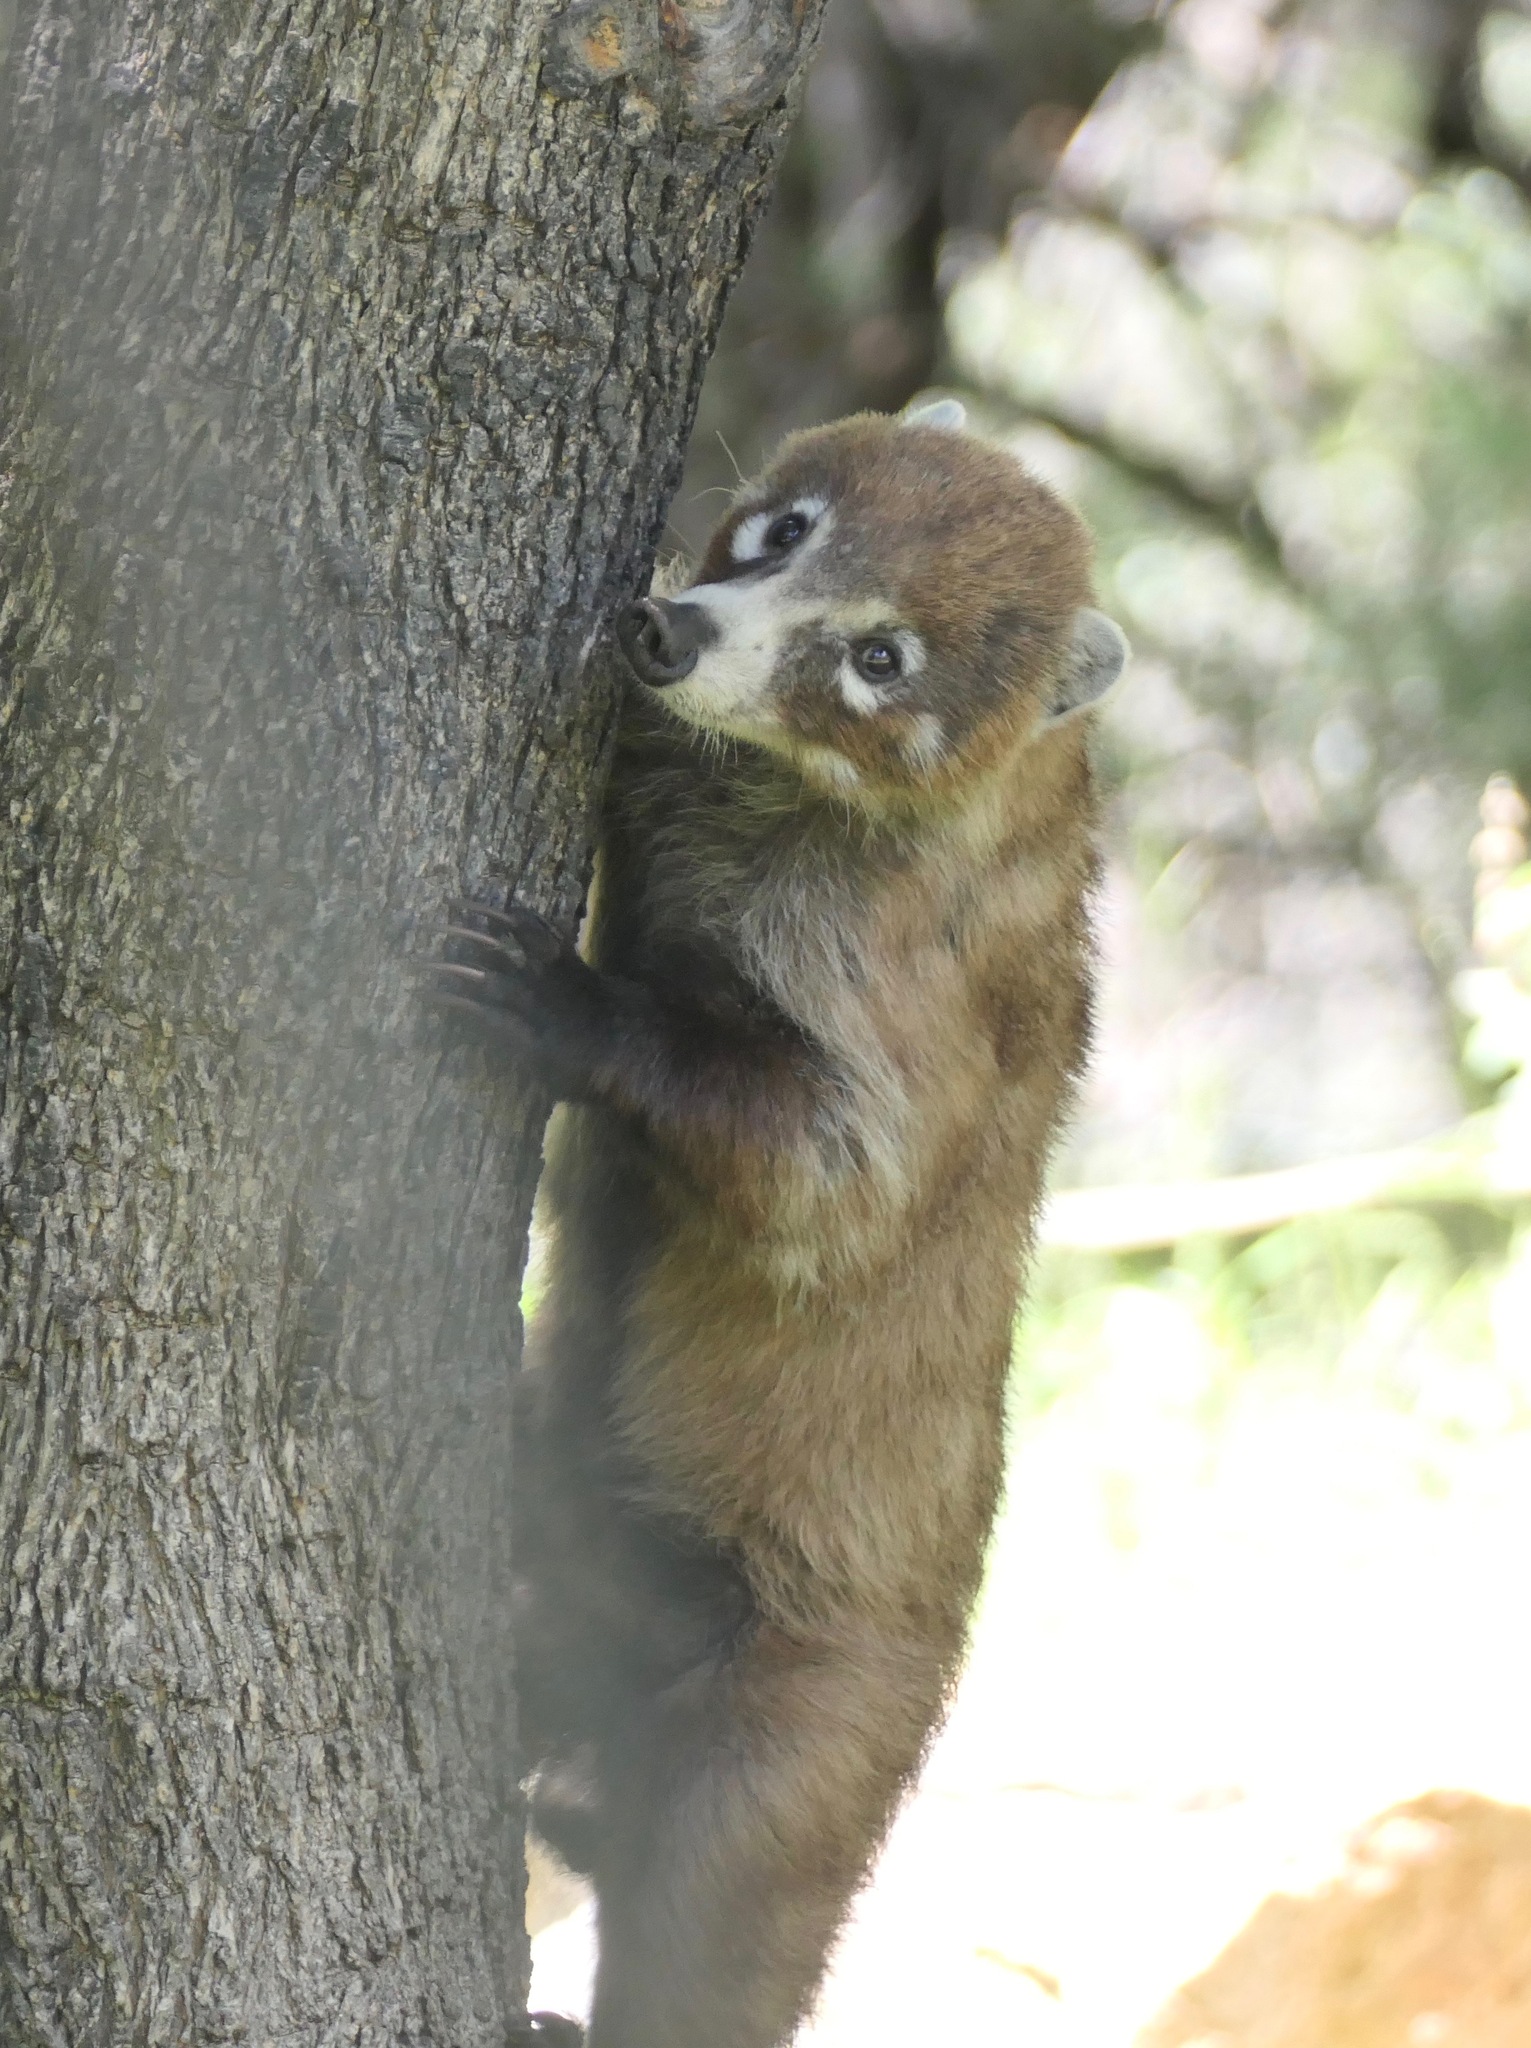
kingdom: Animalia
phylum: Chordata
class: Mammalia
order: Carnivora
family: Procyonidae
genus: Nasua
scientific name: Nasua narica
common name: White-nosed coati
